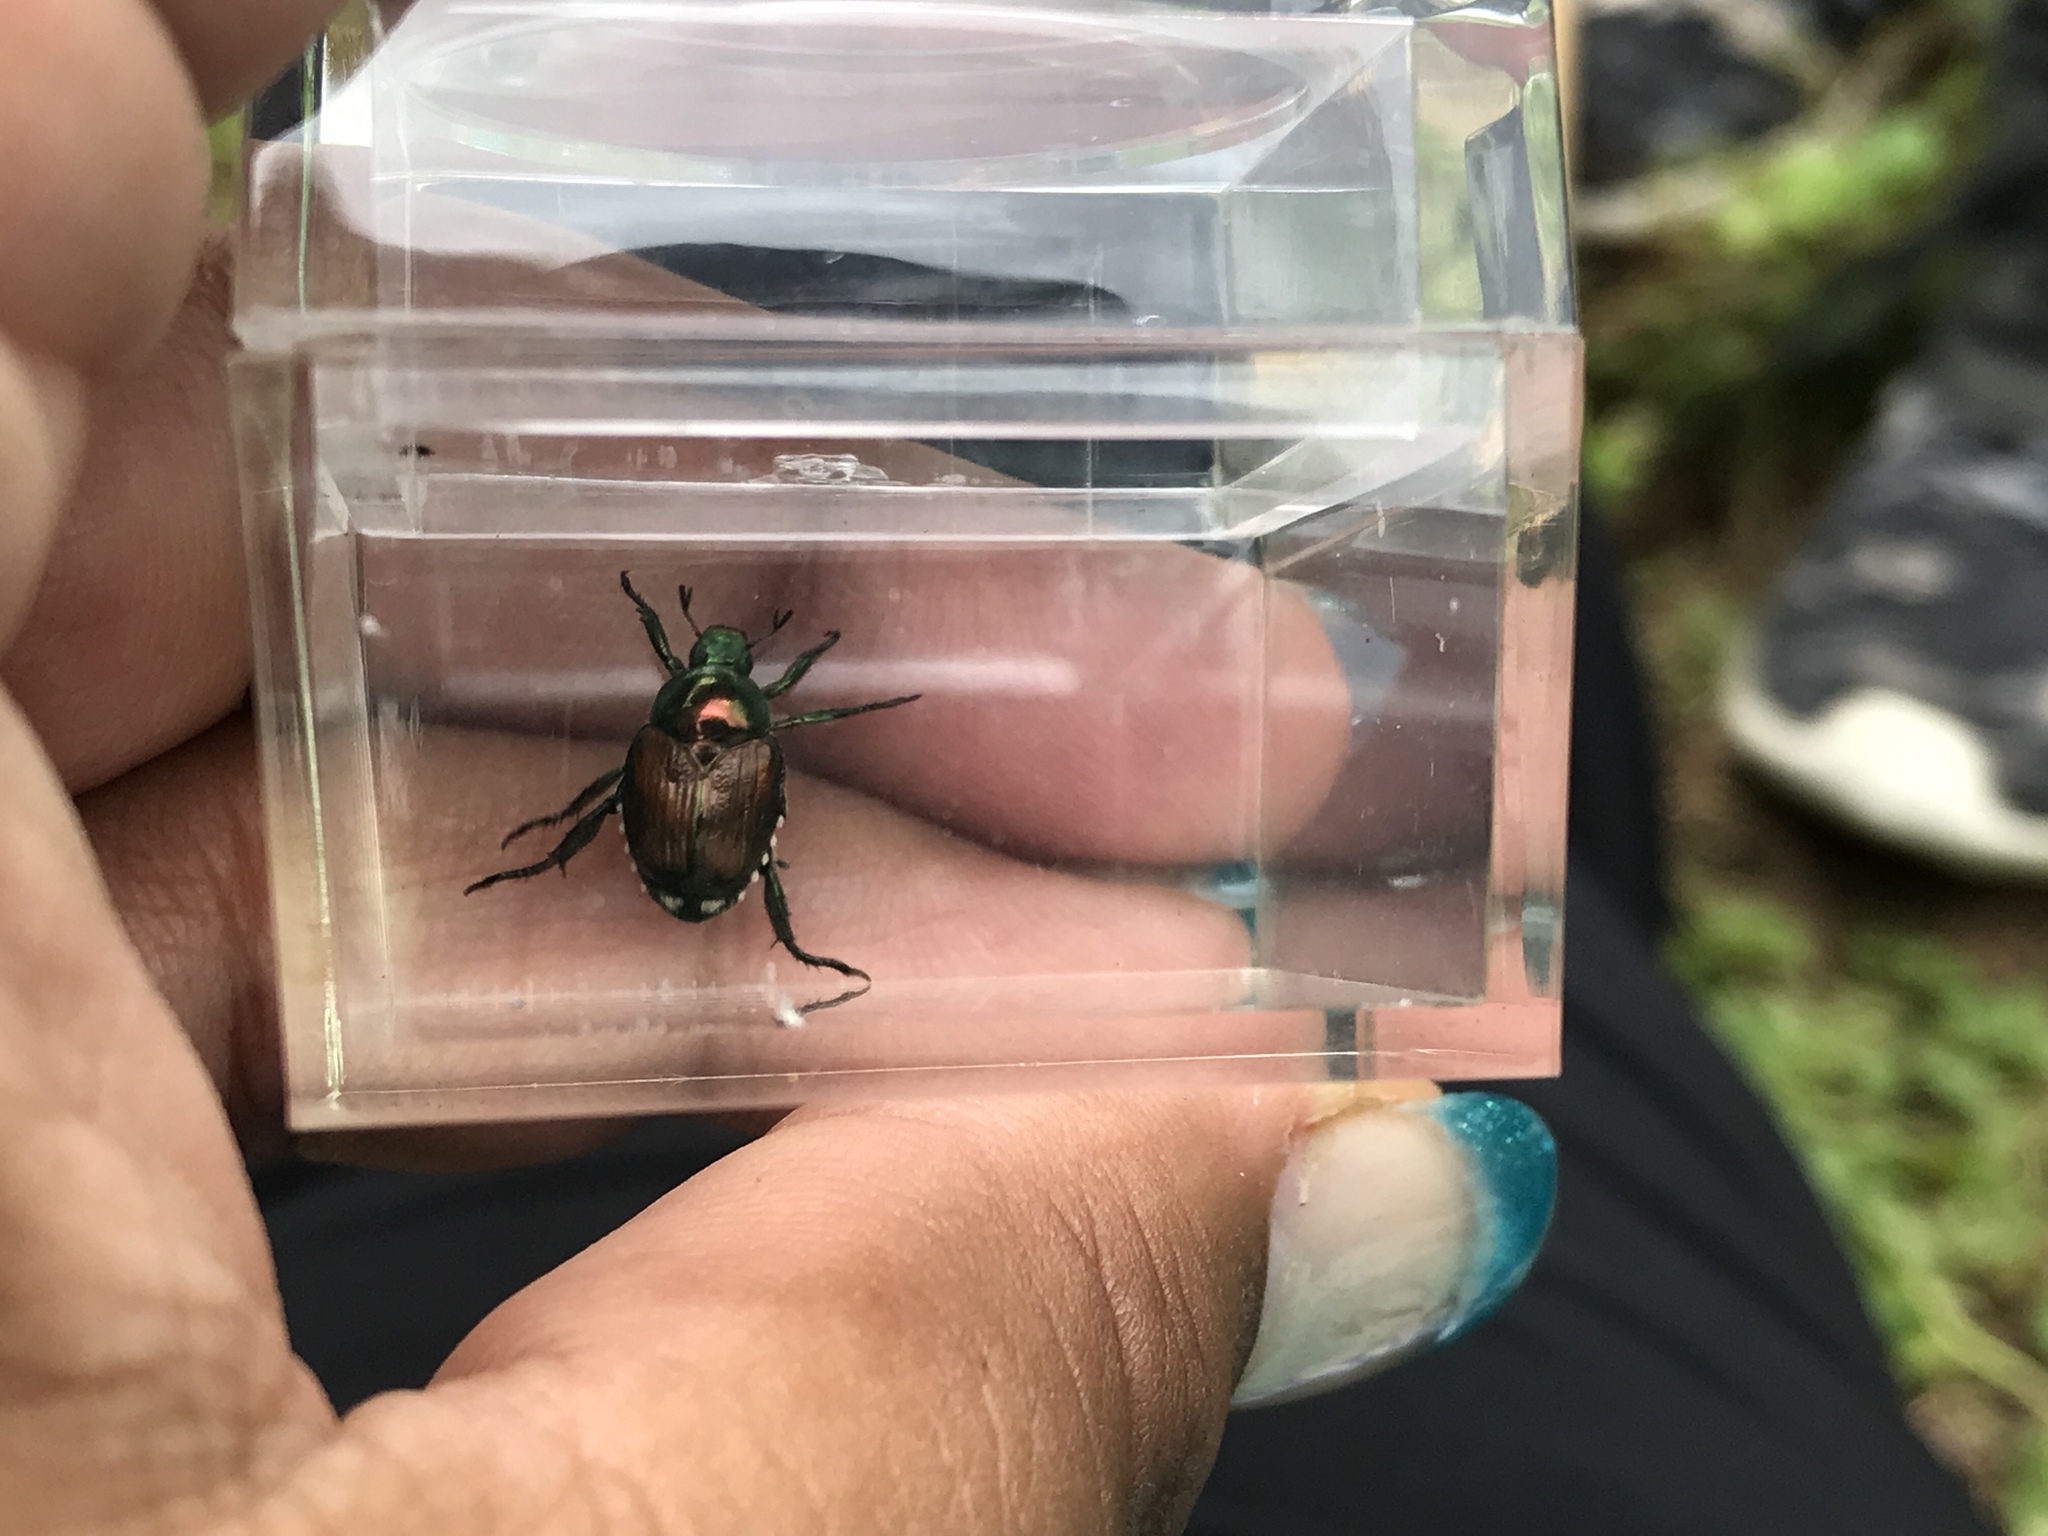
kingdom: Animalia
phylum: Arthropoda
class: Insecta
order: Coleoptera
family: Scarabaeidae
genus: Popillia
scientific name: Popillia japonica
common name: Japanese beetle
